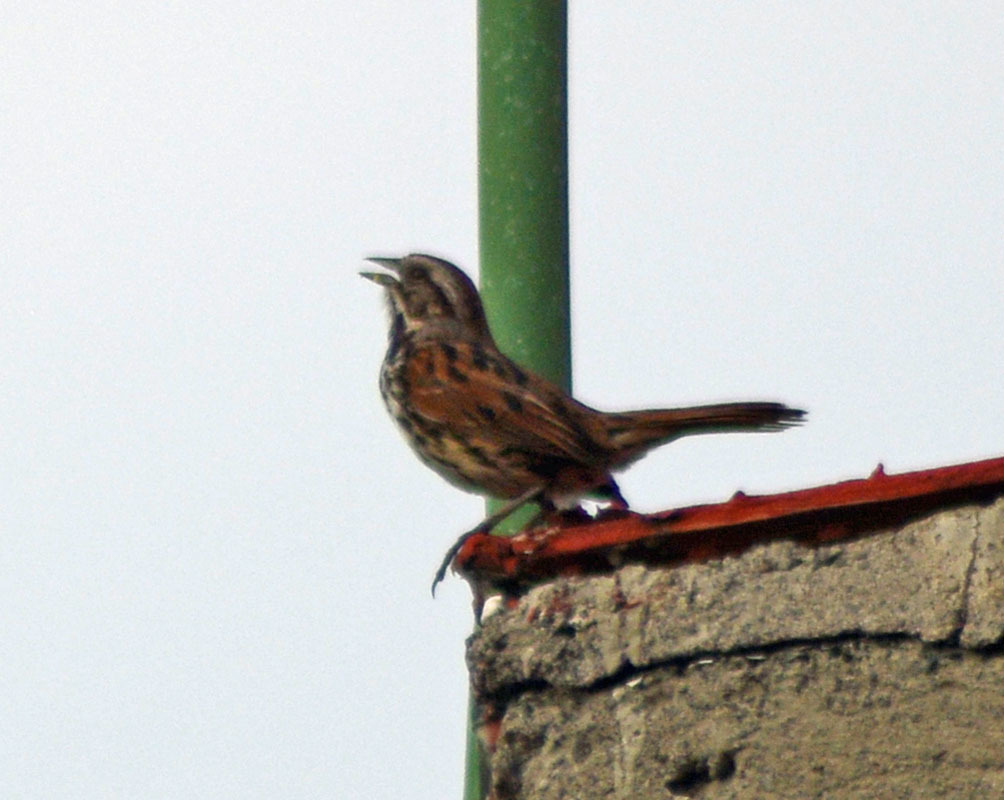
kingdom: Animalia
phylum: Chordata
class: Aves
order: Passeriformes
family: Passerellidae
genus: Melospiza
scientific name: Melospiza melodia
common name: Song sparrow
